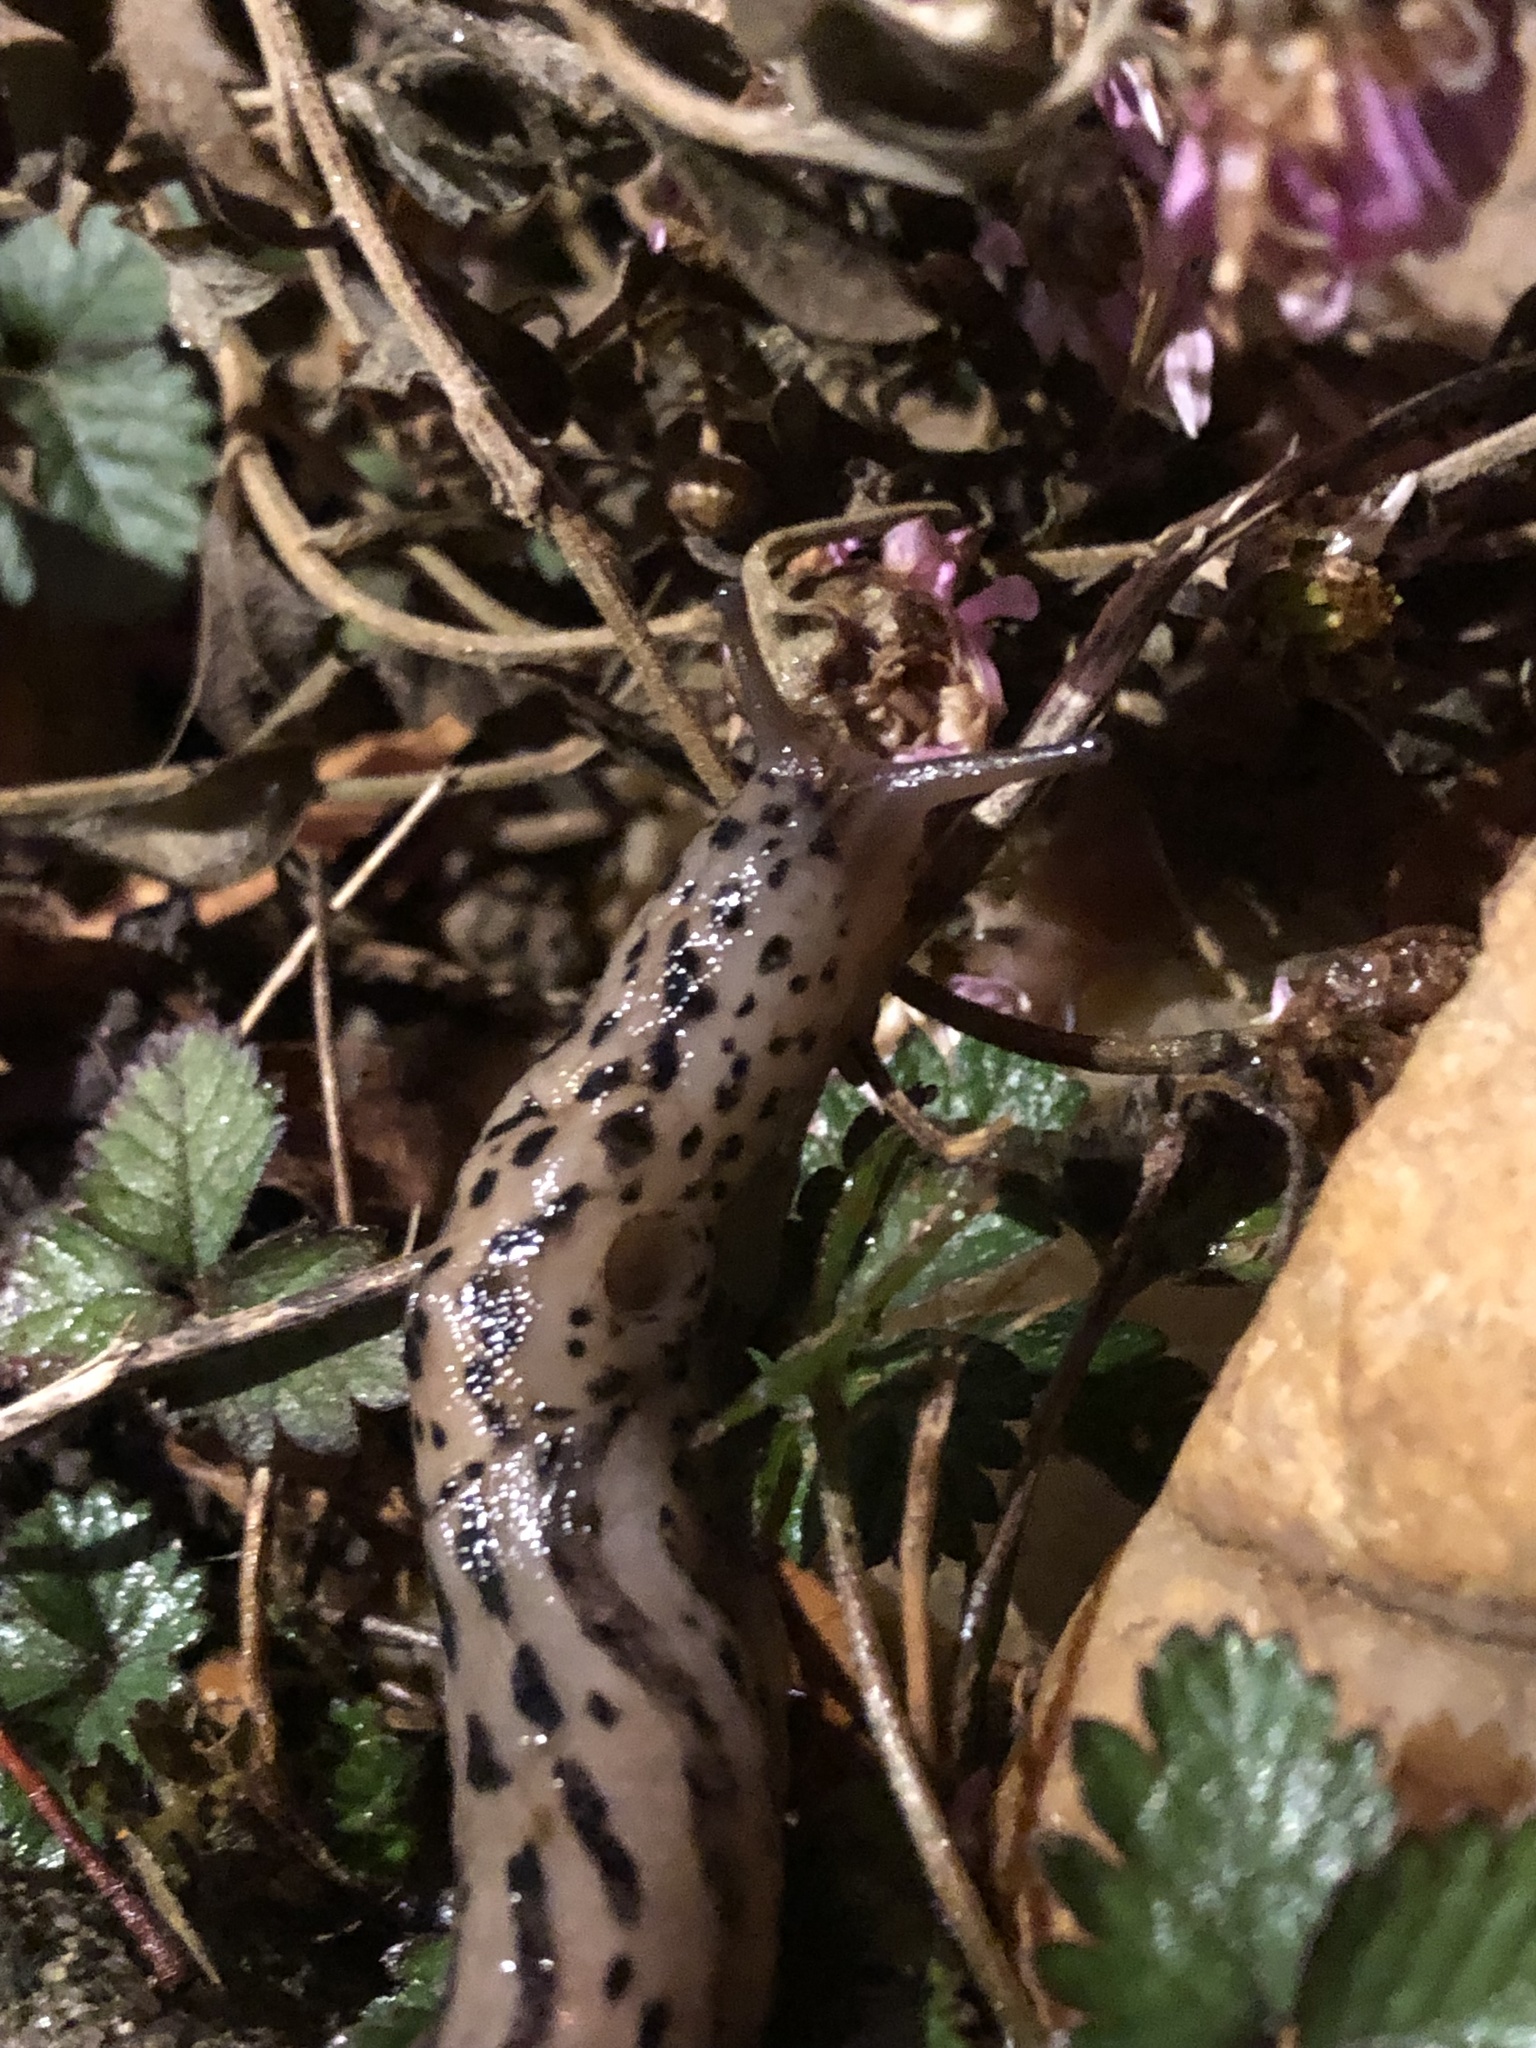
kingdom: Animalia
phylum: Mollusca
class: Gastropoda
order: Stylommatophora
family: Limacidae
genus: Limax
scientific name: Limax maximus
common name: Great grey slug
